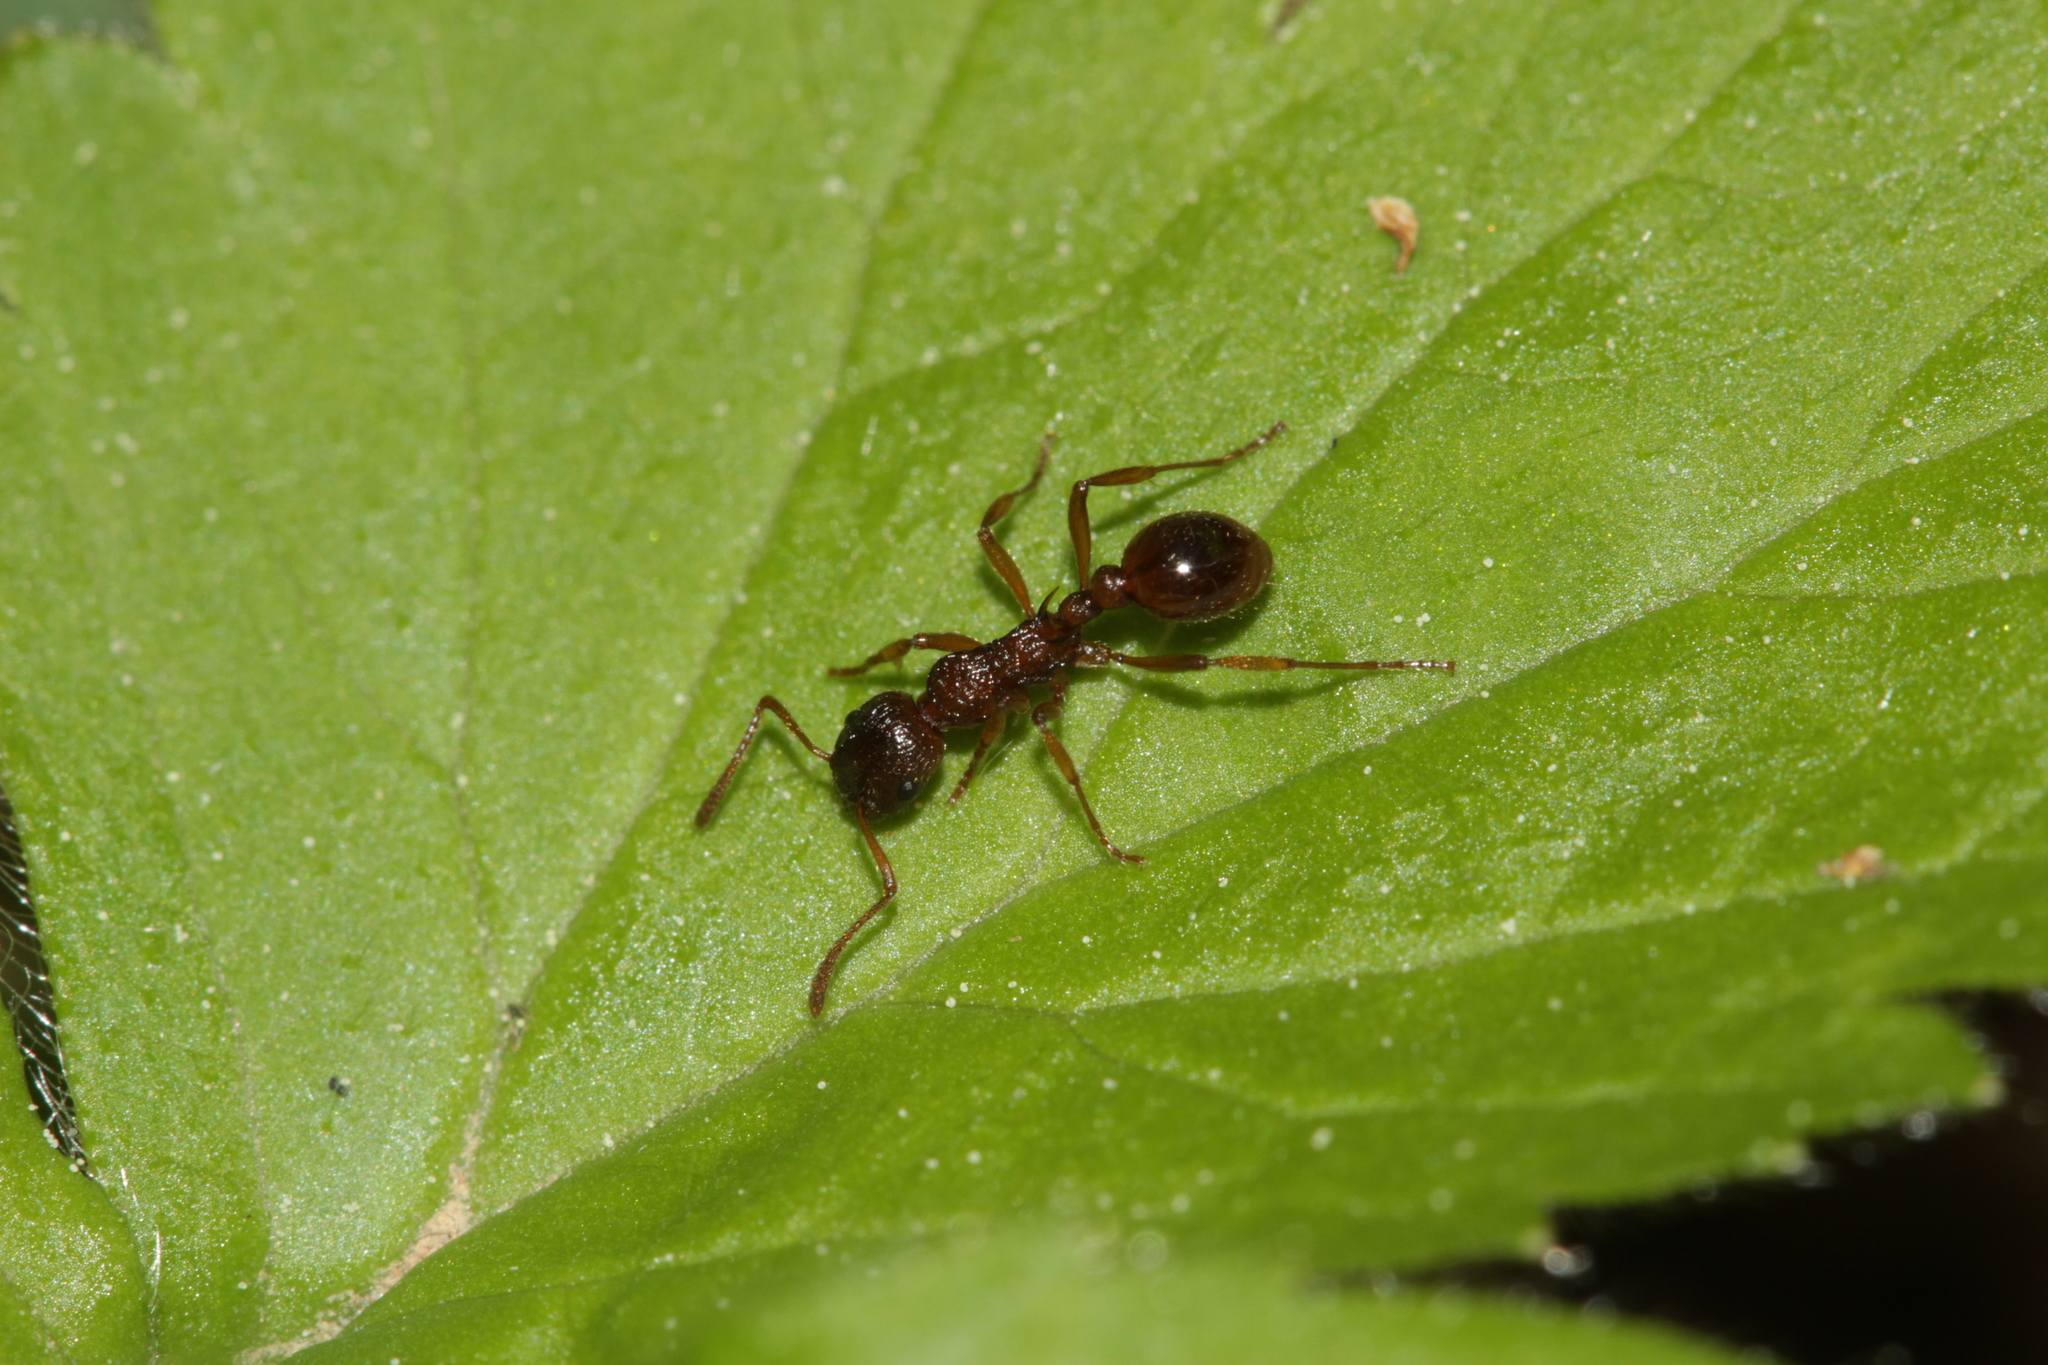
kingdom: Animalia
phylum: Arthropoda
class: Insecta
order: Hymenoptera
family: Formicidae
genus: Myrmica
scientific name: Myrmica ruginodis
